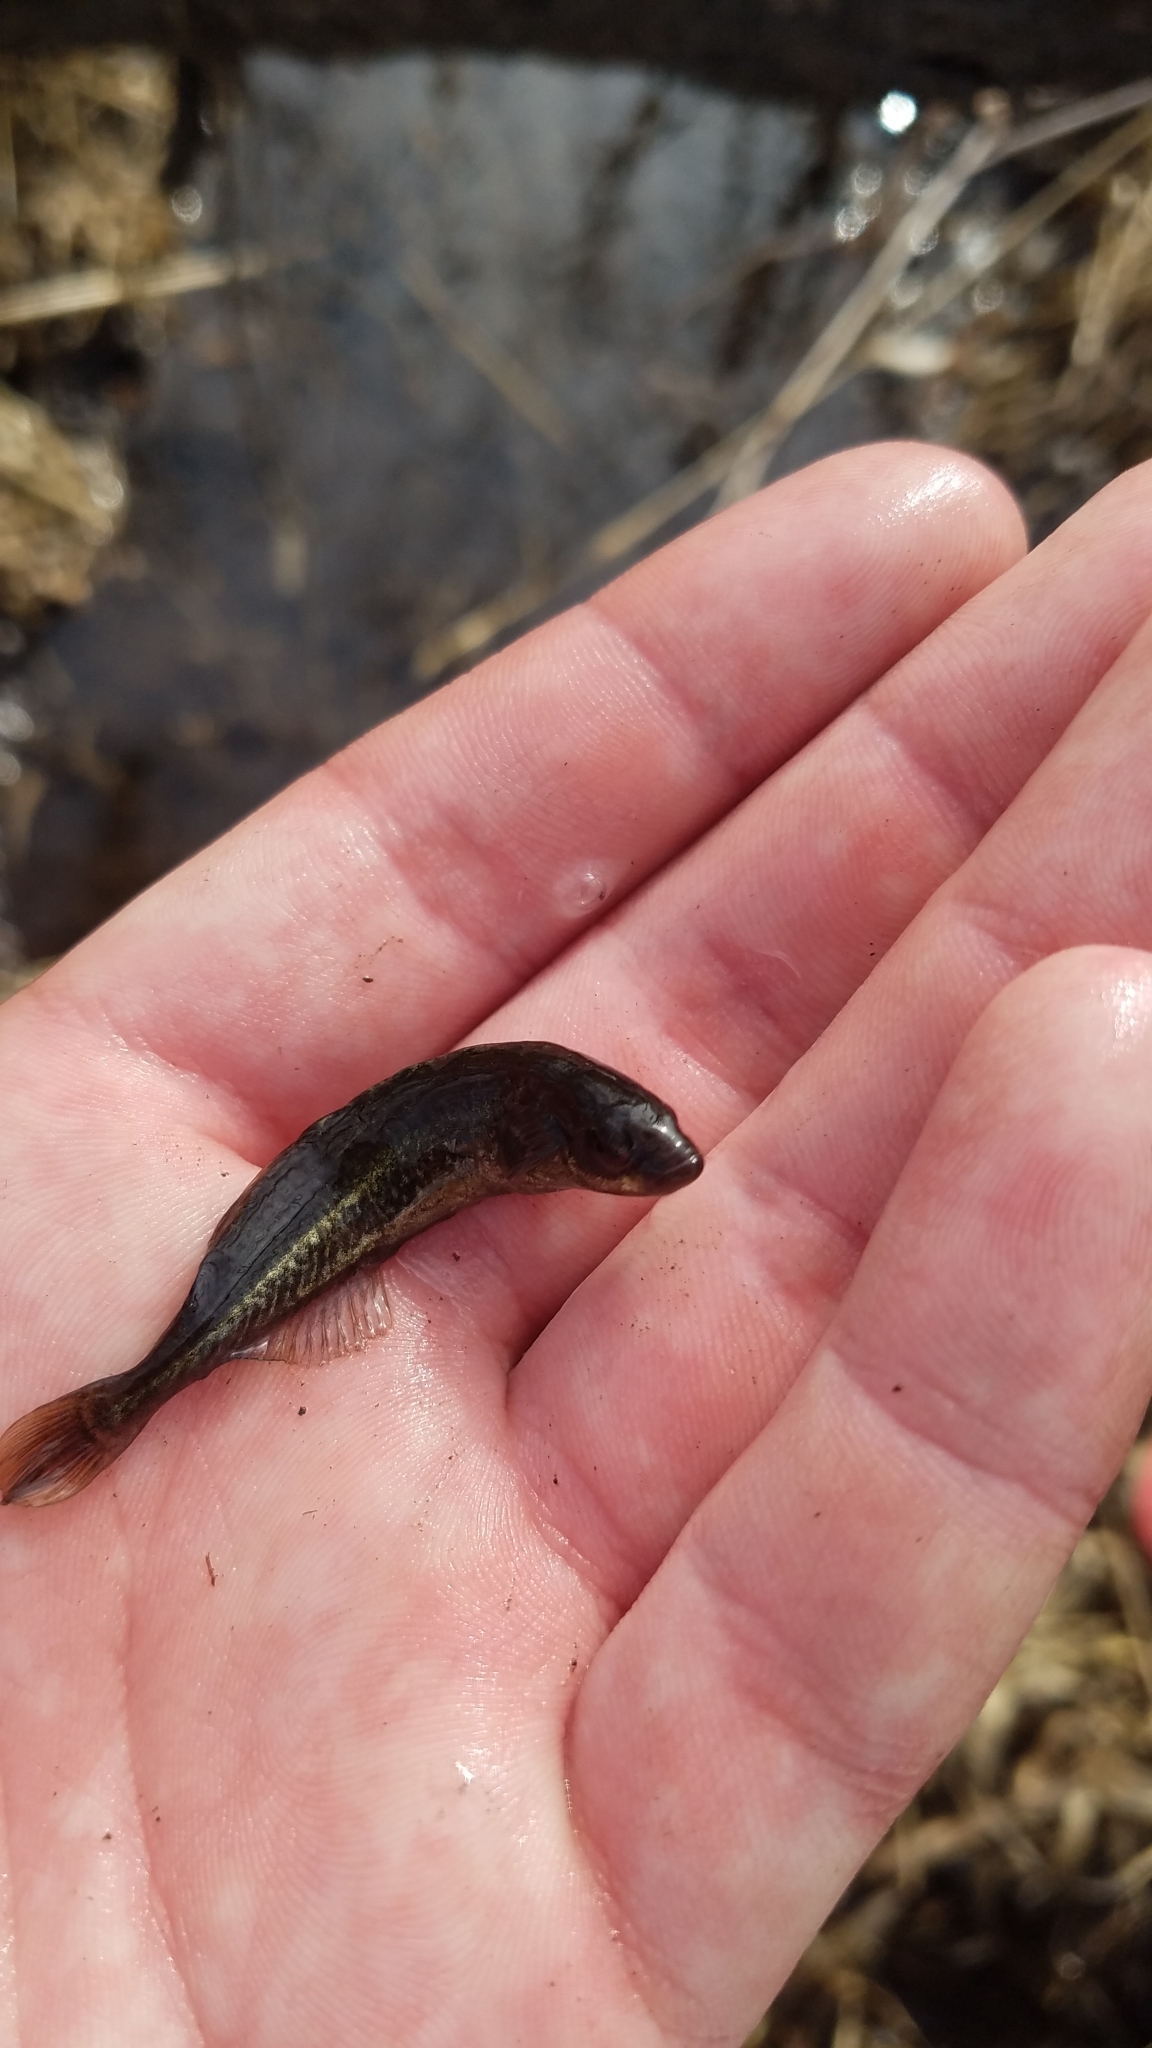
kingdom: Animalia
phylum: Chordata
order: Esociformes
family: Umbridae
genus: Umbra
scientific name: Umbra limi
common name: Central mudminnow
